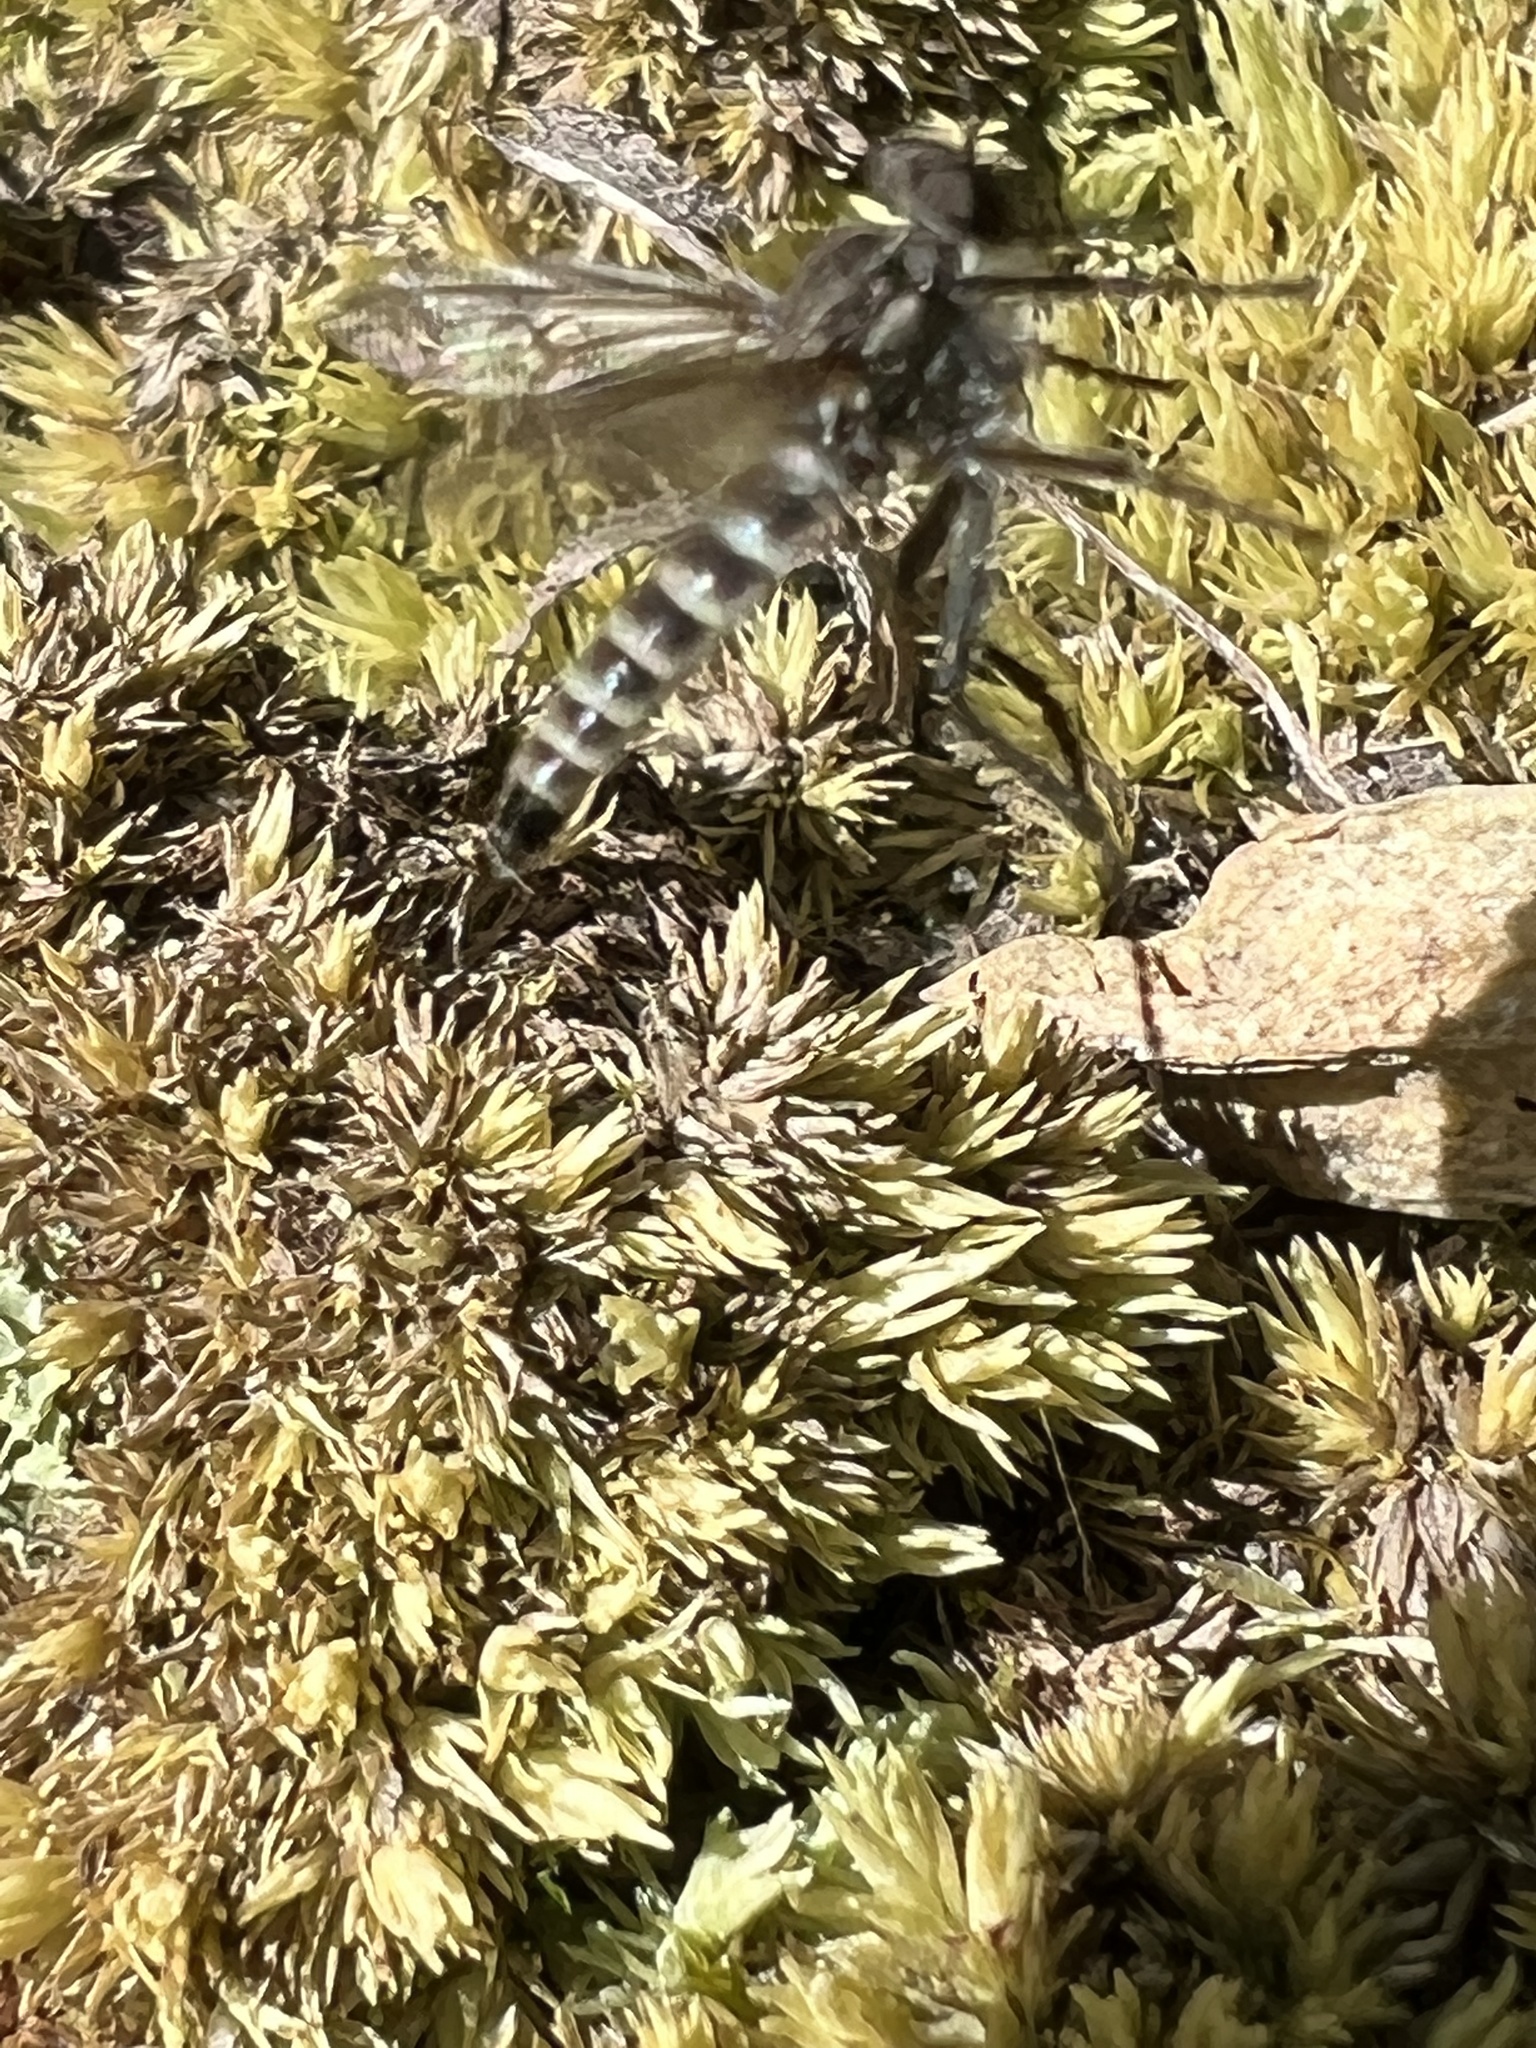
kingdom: Animalia
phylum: Arthropoda
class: Insecta
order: Diptera
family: Asilidae
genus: Lasiopogon
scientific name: Lasiopogon currani
